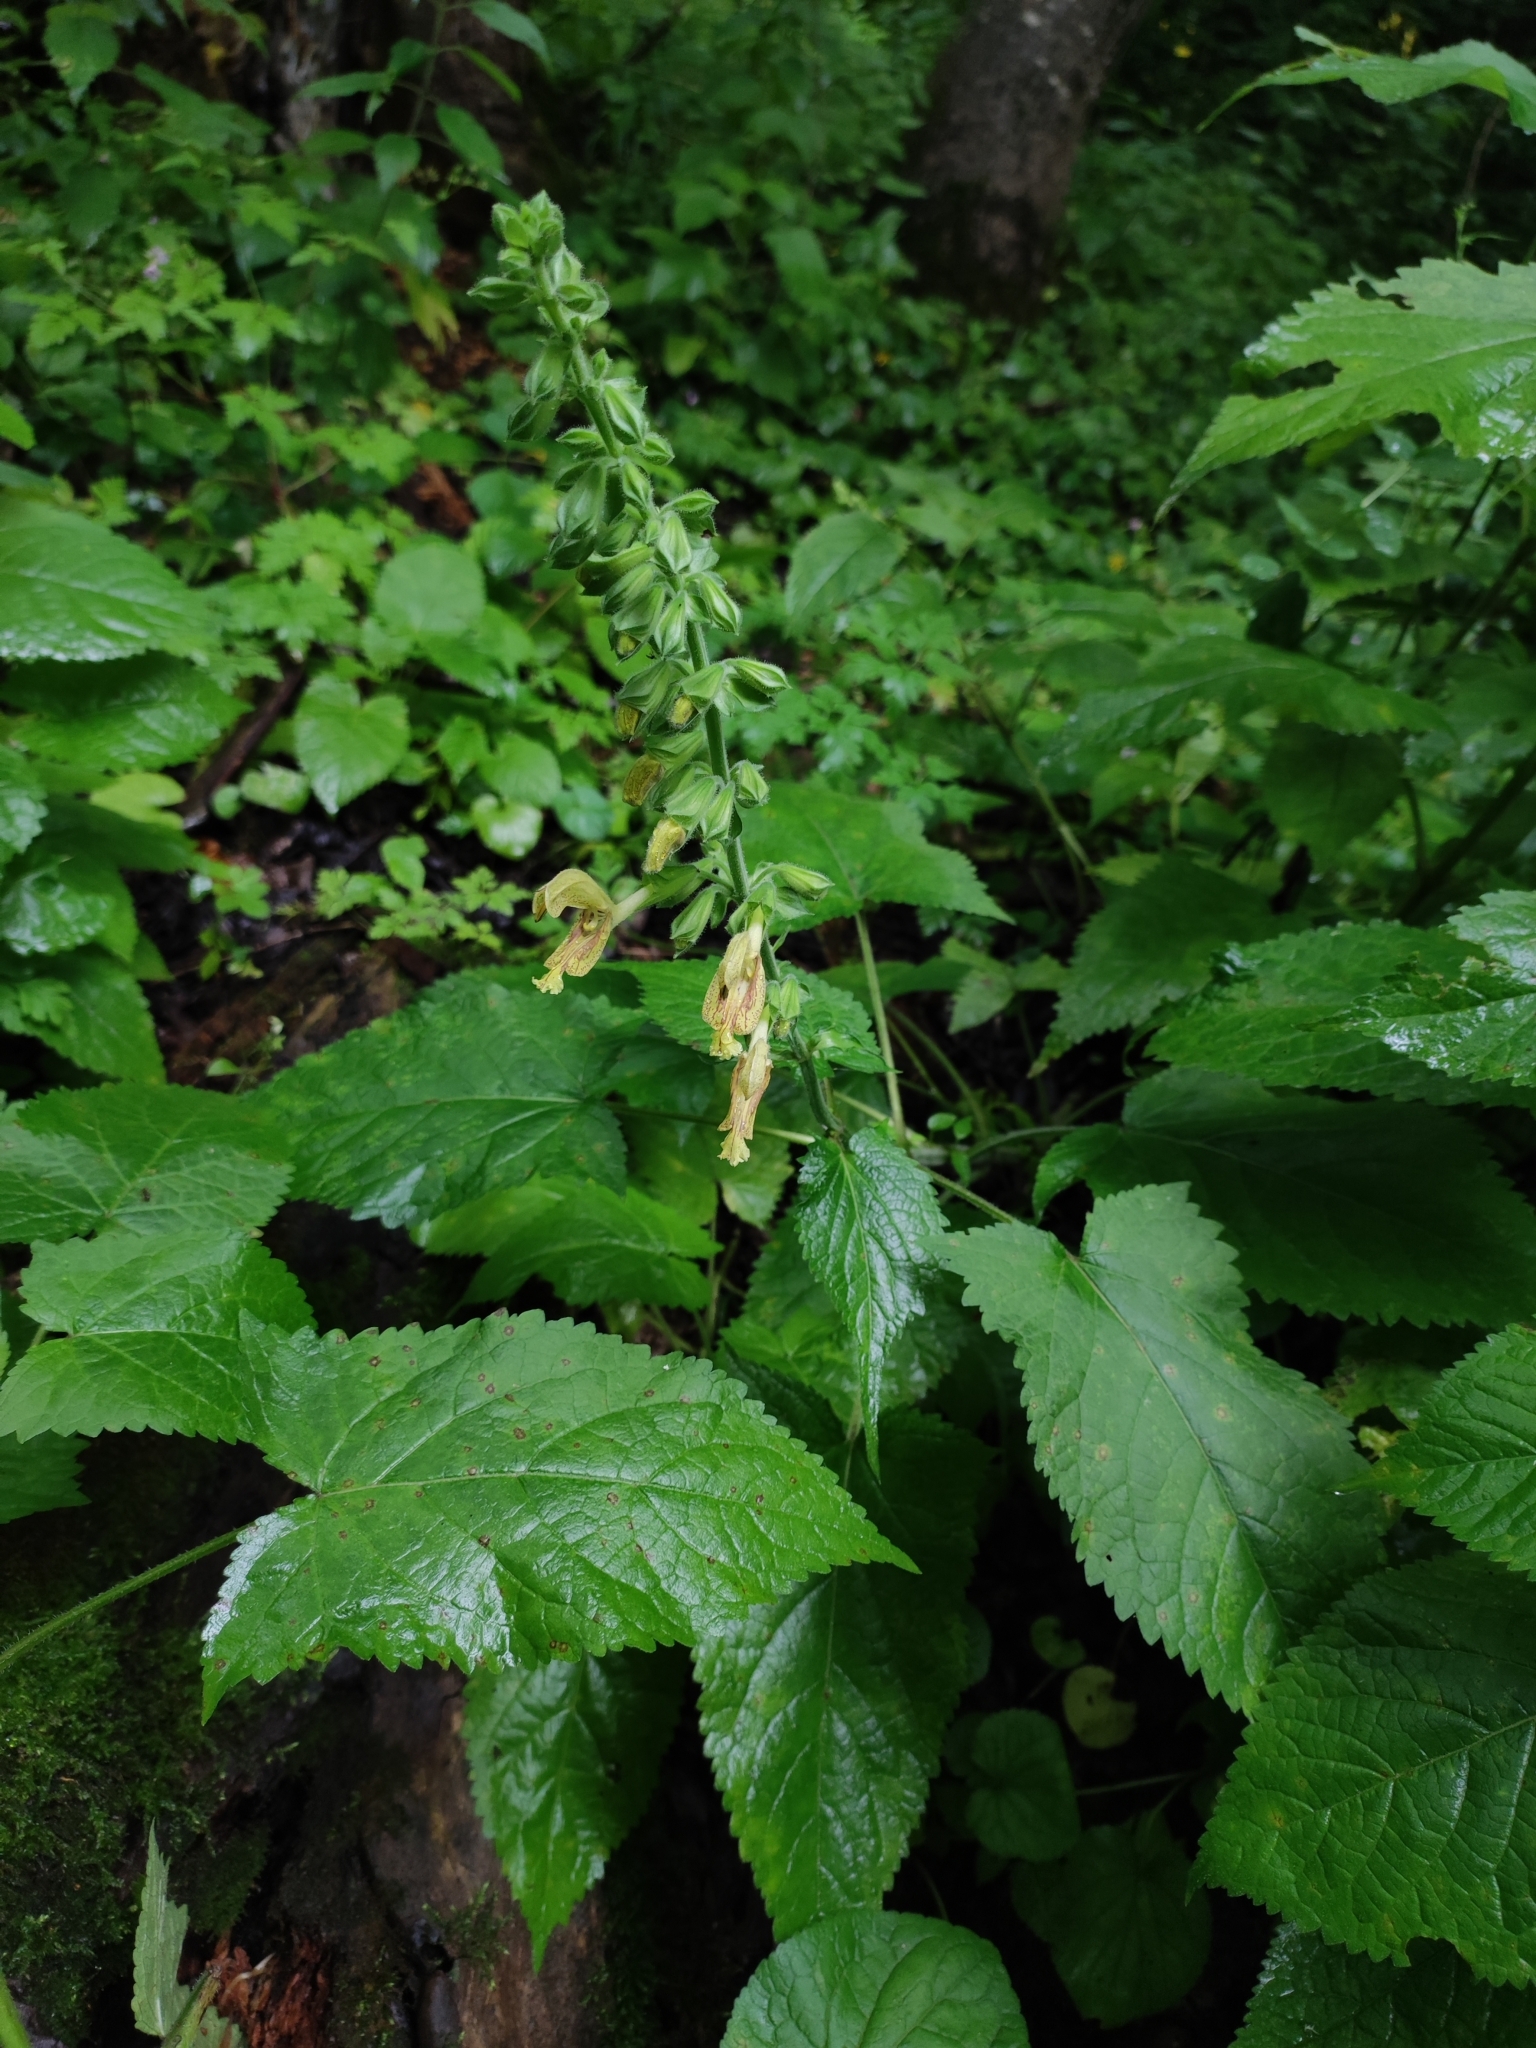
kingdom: Plantae
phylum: Tracheophyta
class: Magnoliopsida
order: Lamiales
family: Lamiaceae
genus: Salvia
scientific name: Salvia glutinosa
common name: Sticky clary
